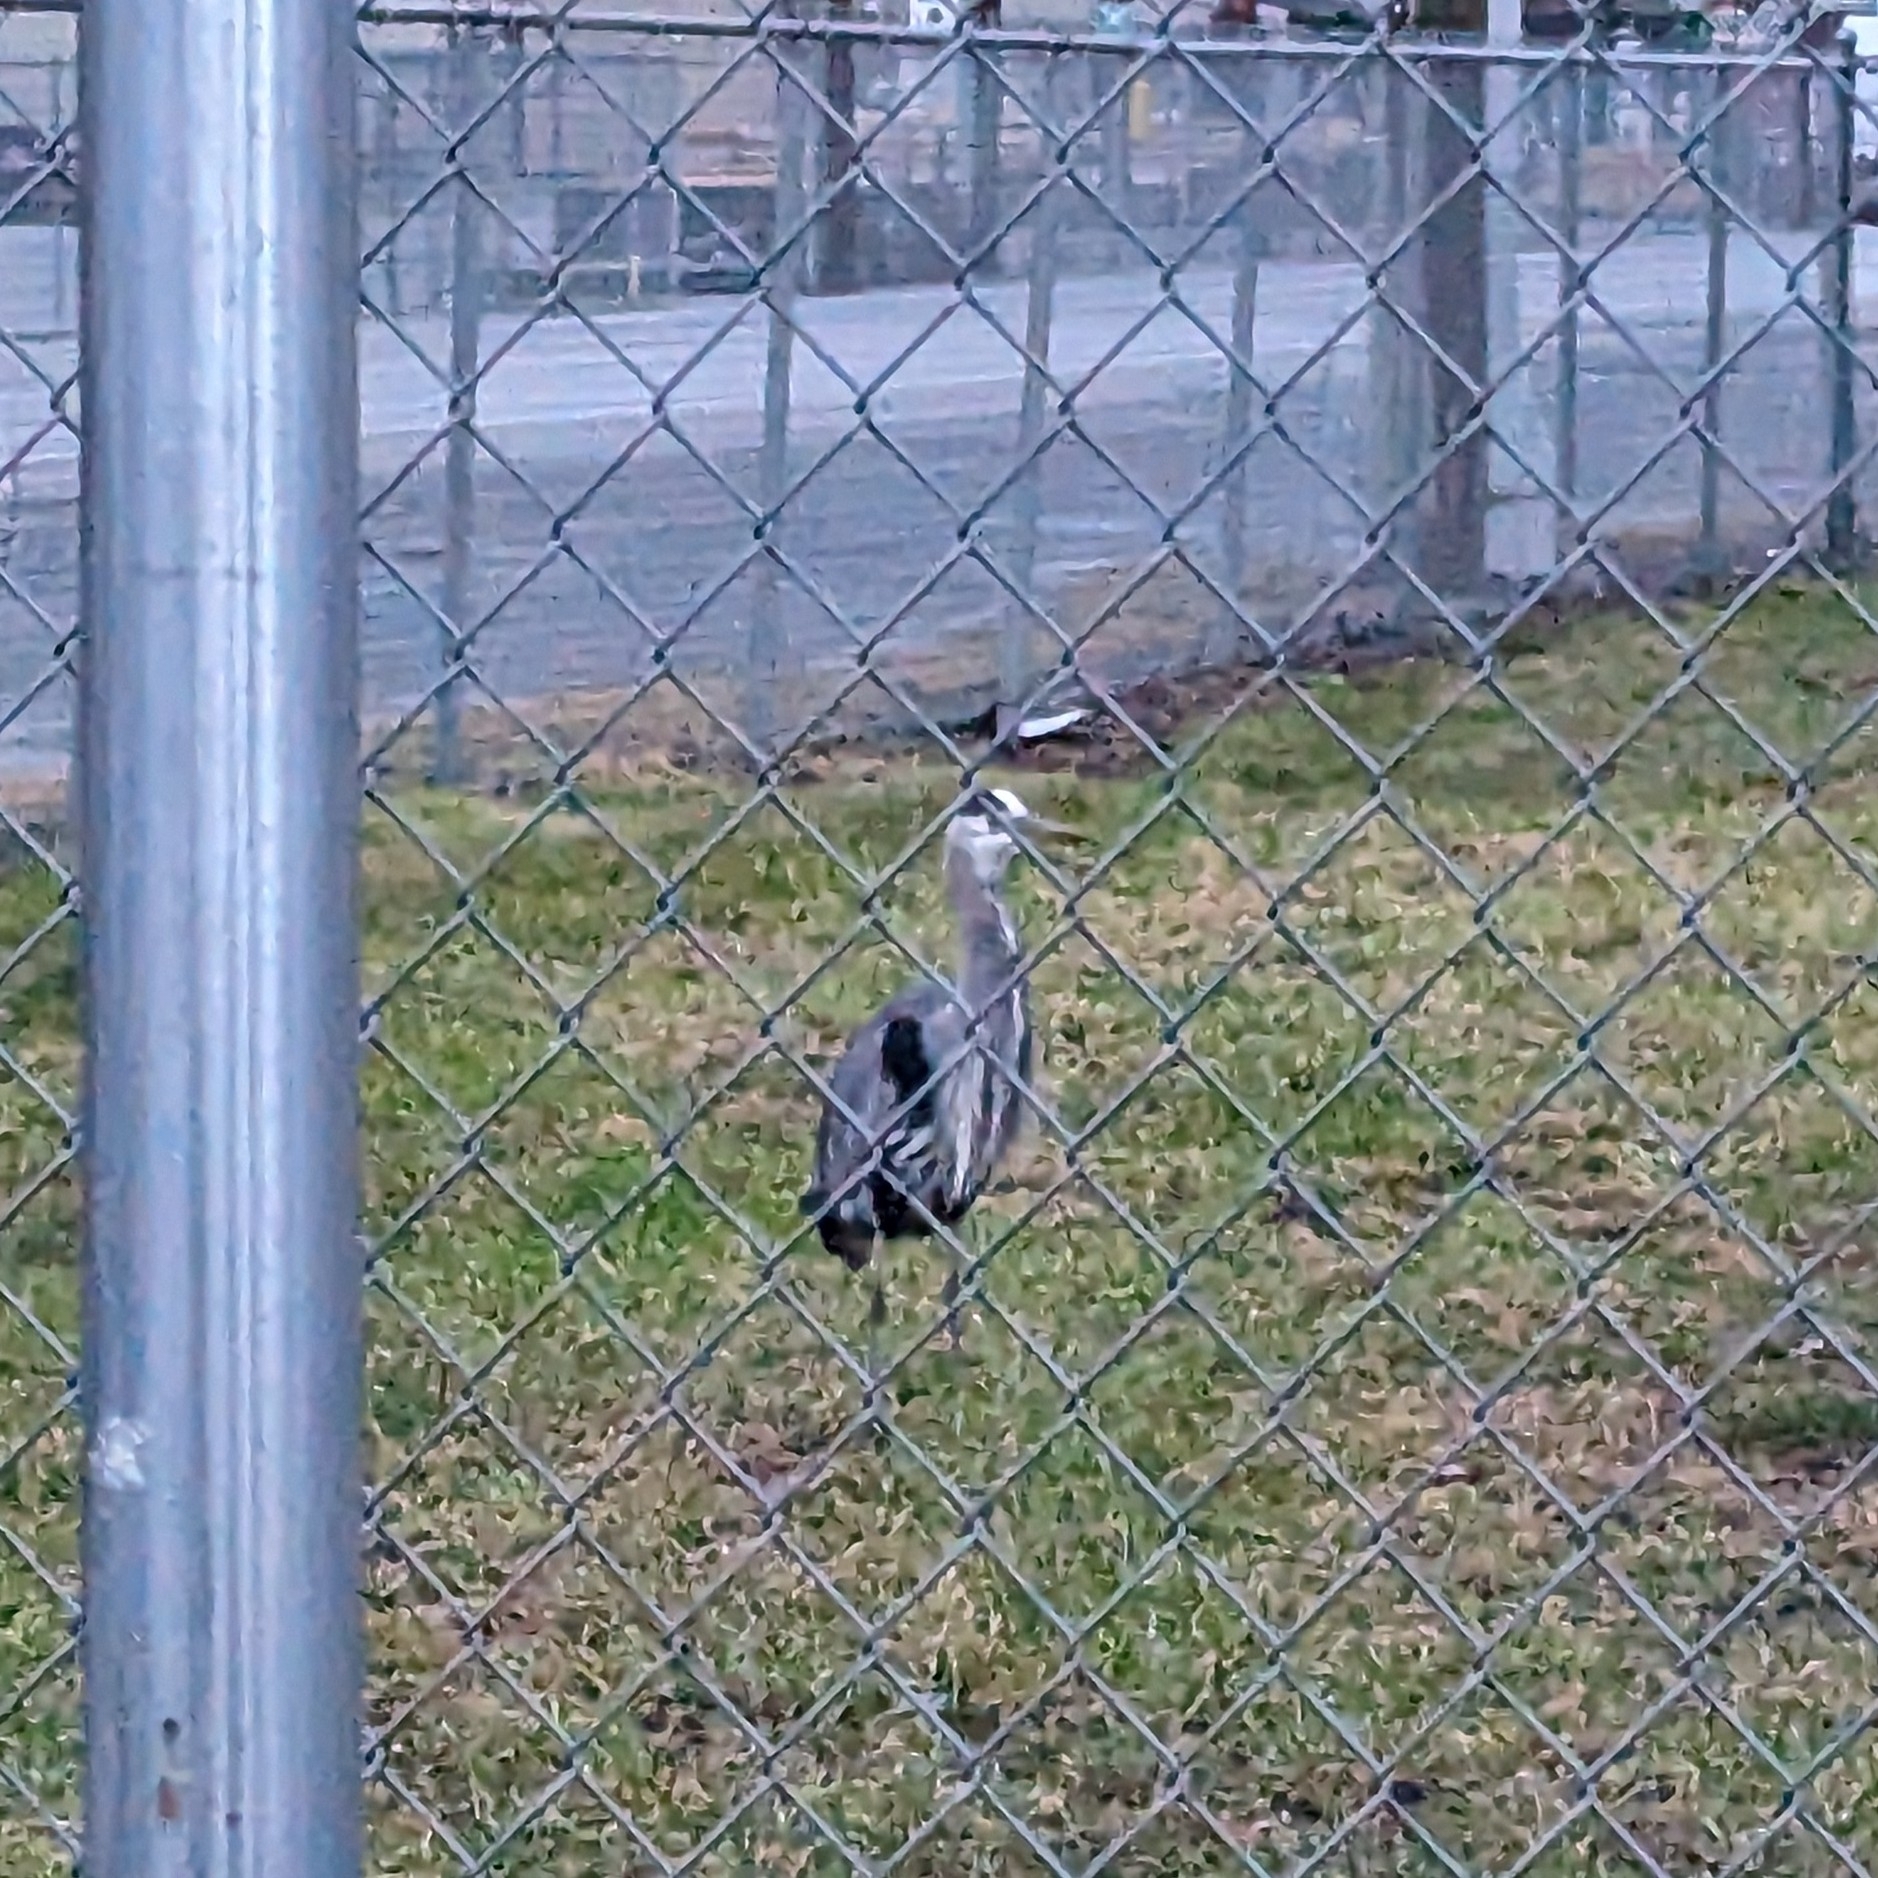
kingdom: Animalia
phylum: Chordata
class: Aves
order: Pelecaniformes
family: Ardeidae
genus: Ardea
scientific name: Ardea herodias
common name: Great blue heron
